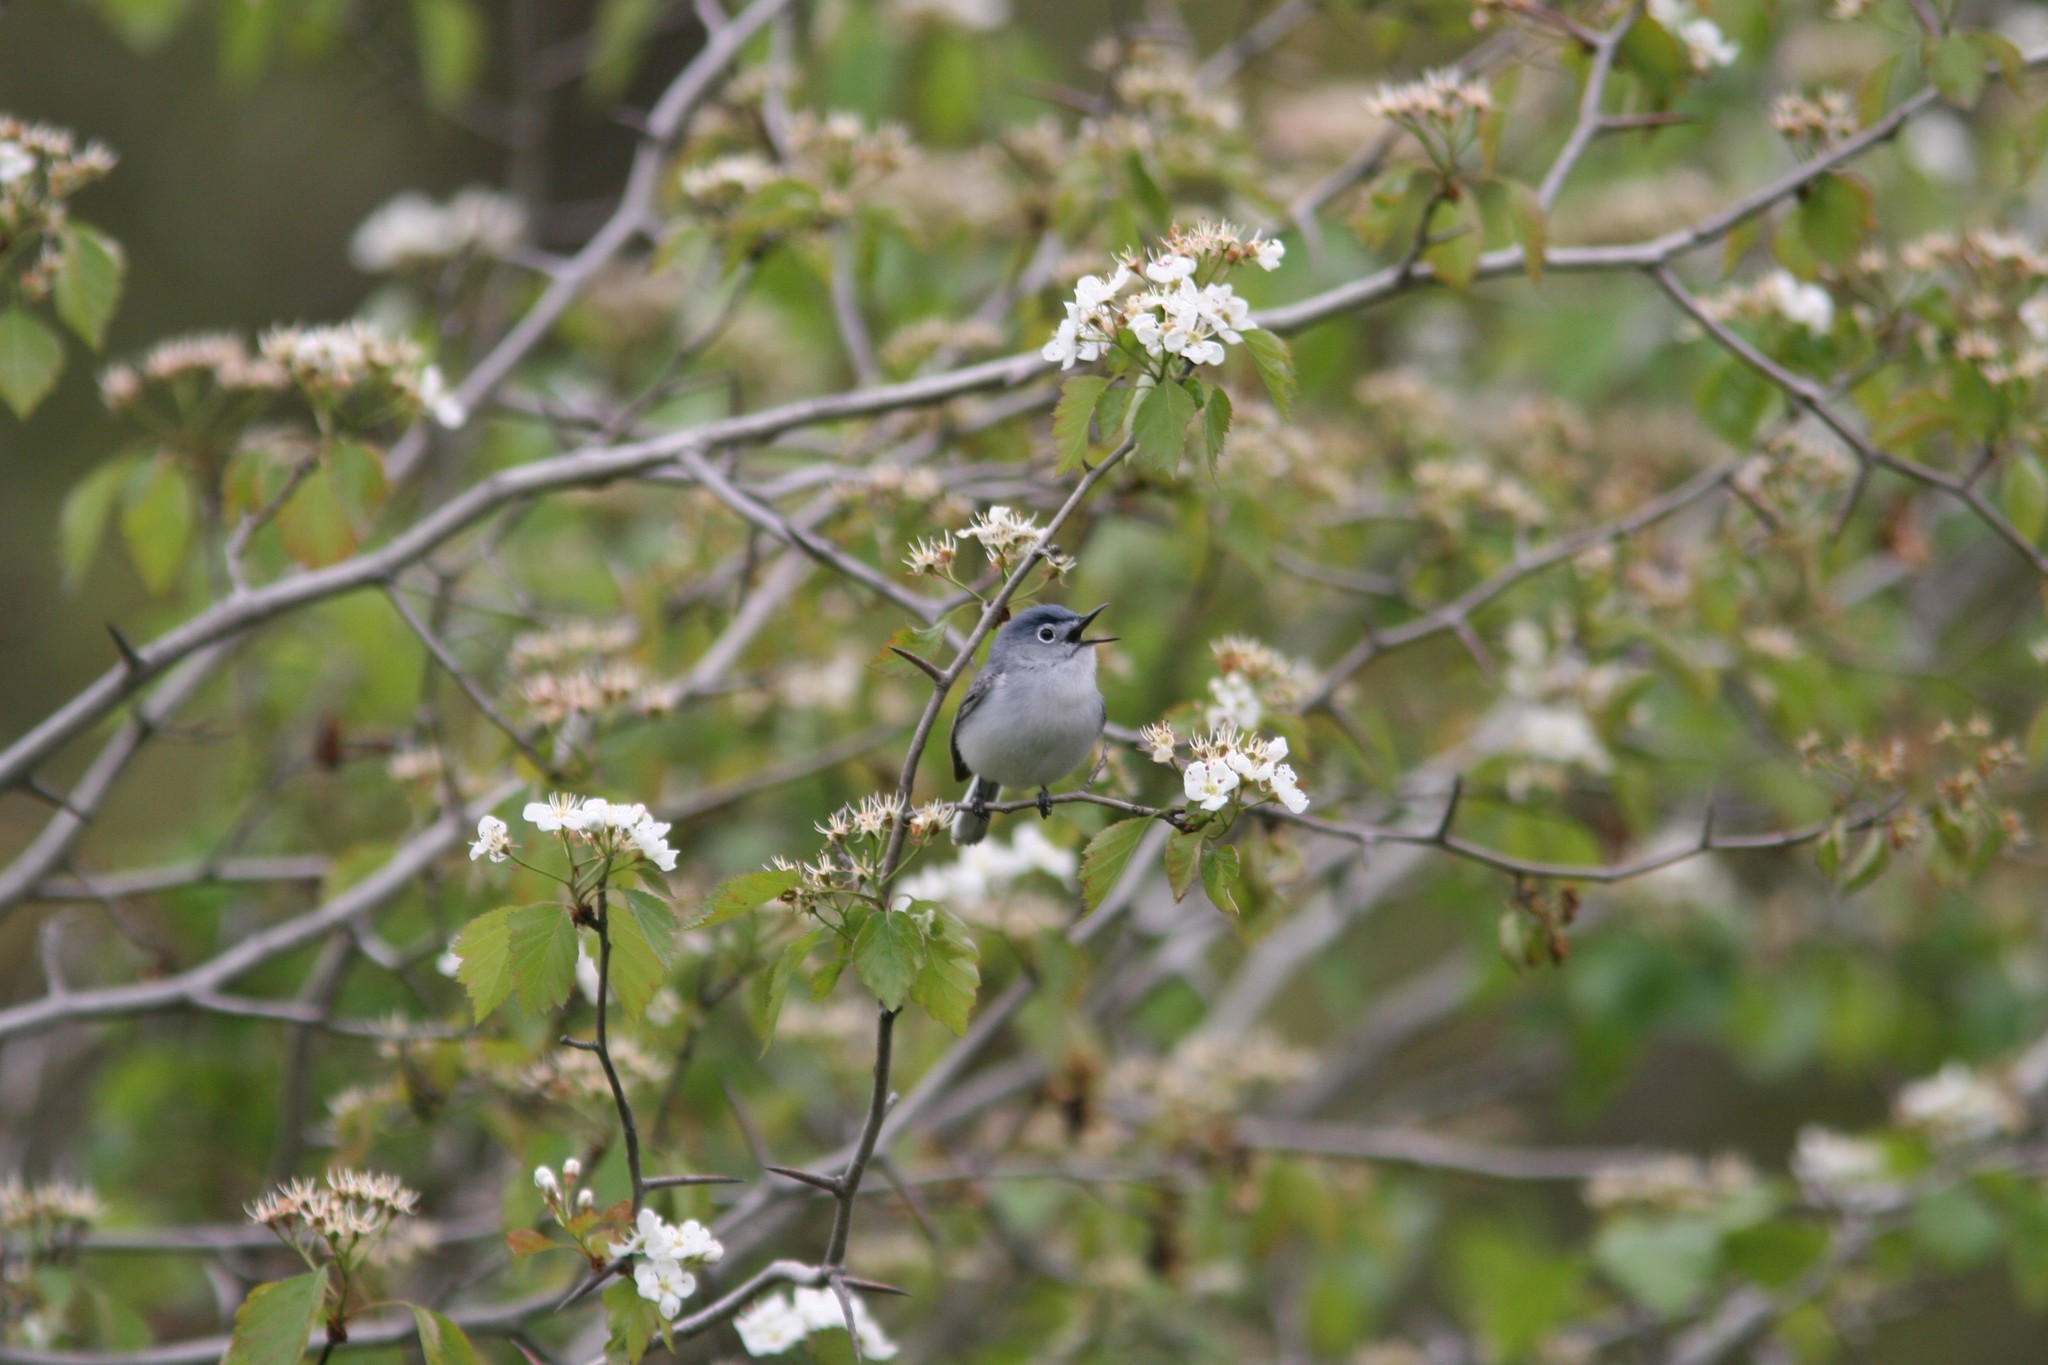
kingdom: Animalia
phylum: Chordata
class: Aves
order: Passeriformes
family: Polioptilidae
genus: Polioptila
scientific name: Polioptila caerulea
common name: Blue-gray gnatcatcher
